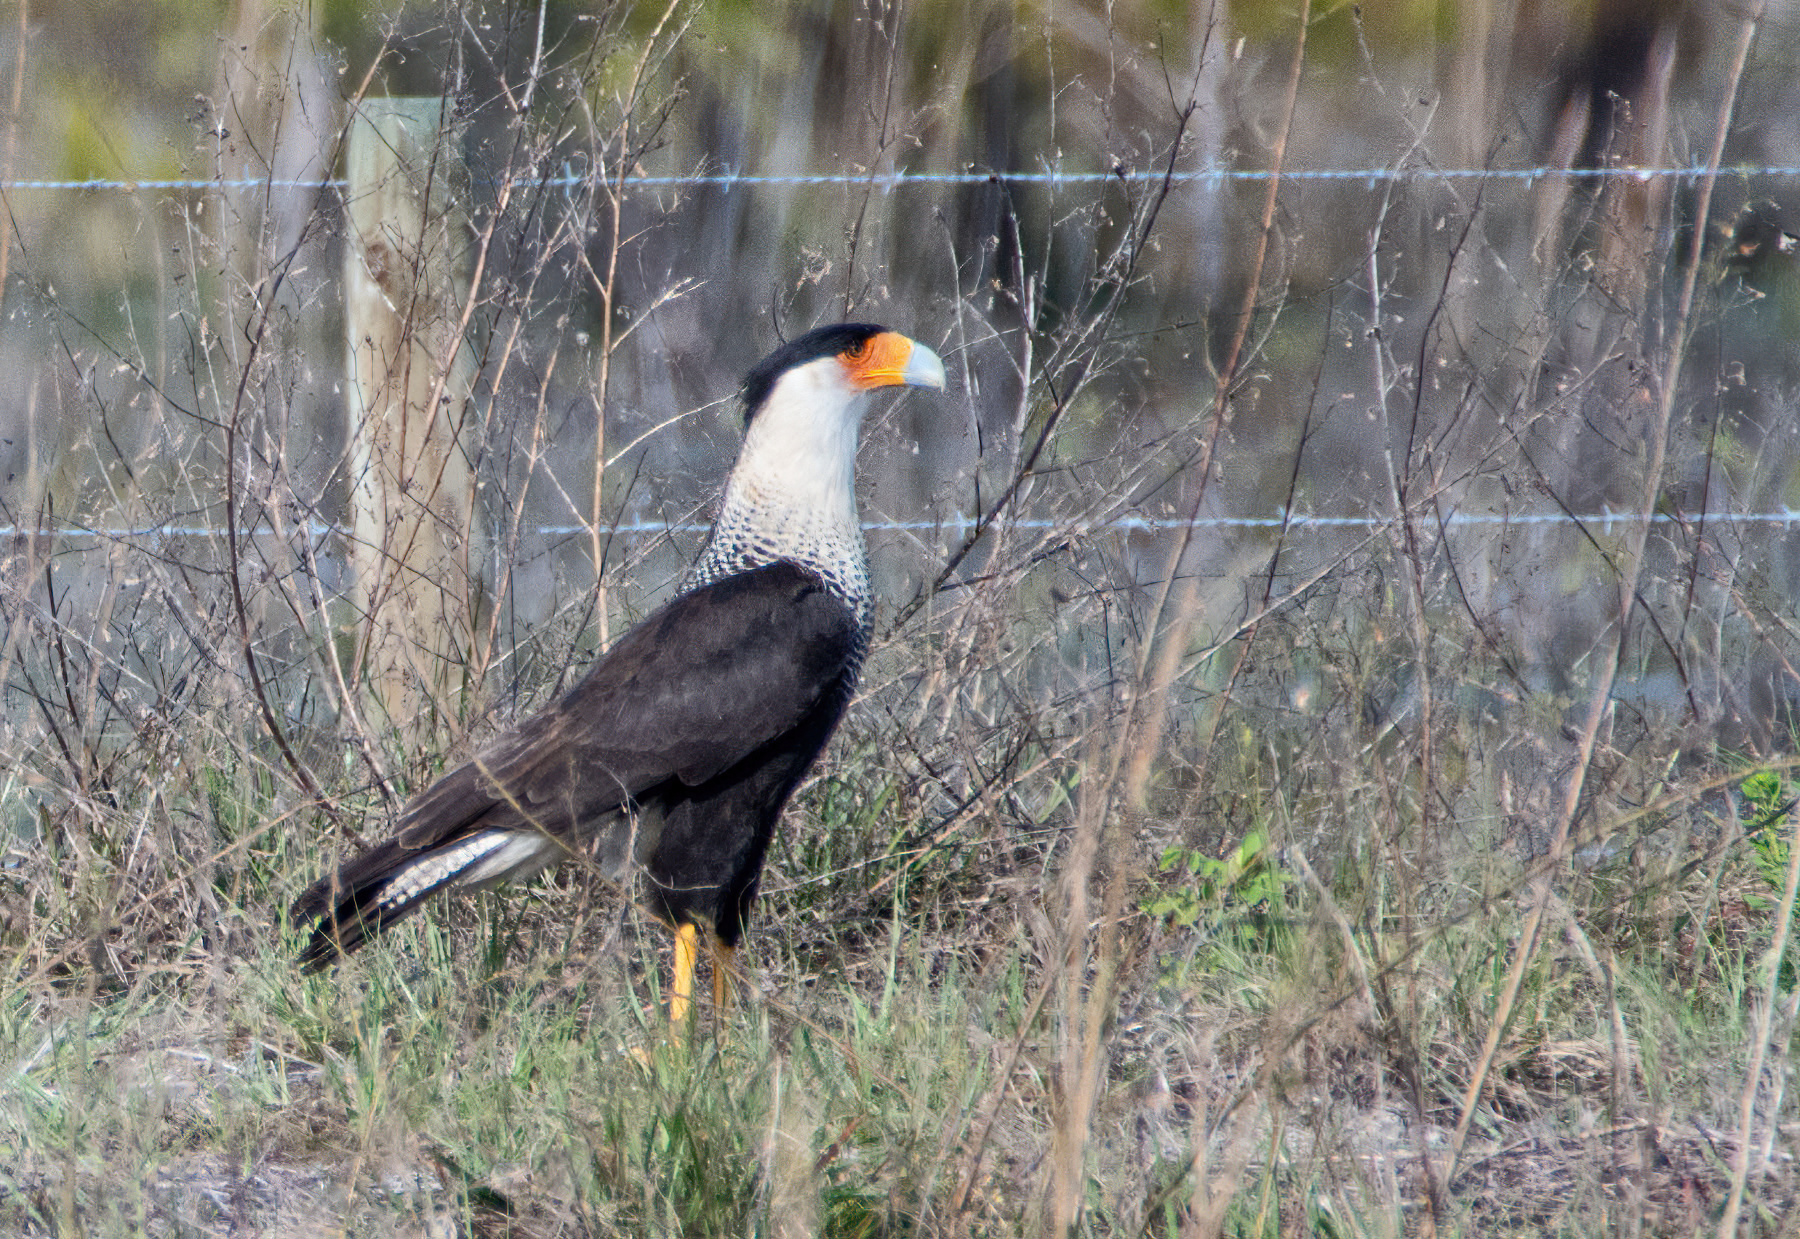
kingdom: Animalia
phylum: Chordata
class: Aves
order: Falconiformes
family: Falconidae
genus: Caracara
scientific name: Caracara plancus
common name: Southern caracara
